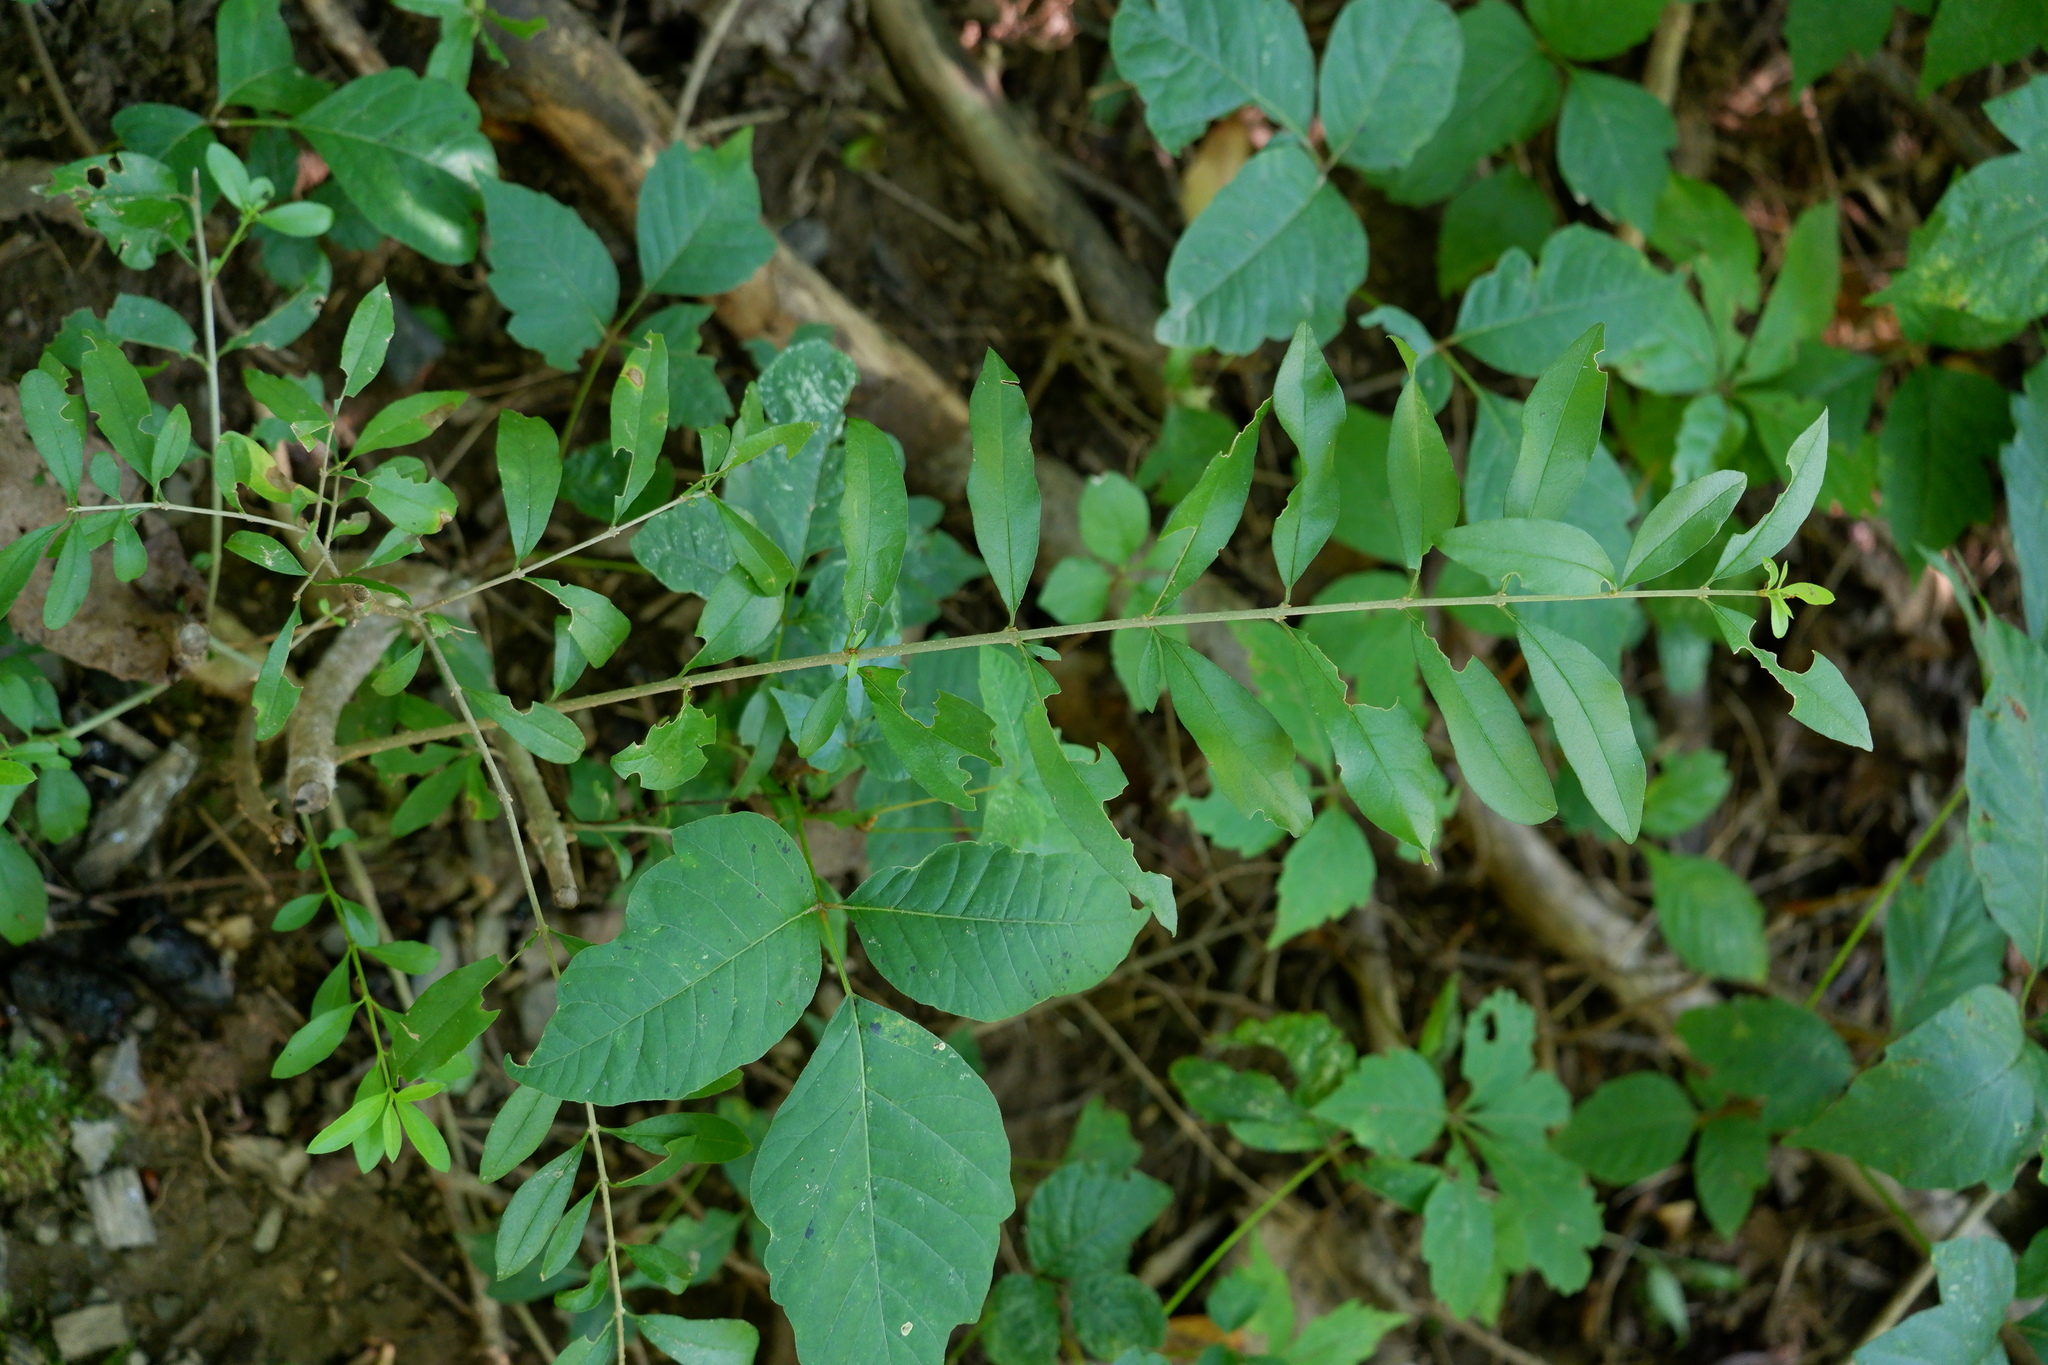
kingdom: Plantae
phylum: Tracheophyta
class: Magnoliopsida
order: Lamiales
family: Oleaceae
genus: Ligustrum
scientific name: Ligustrum obtusifolium
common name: Border privet
